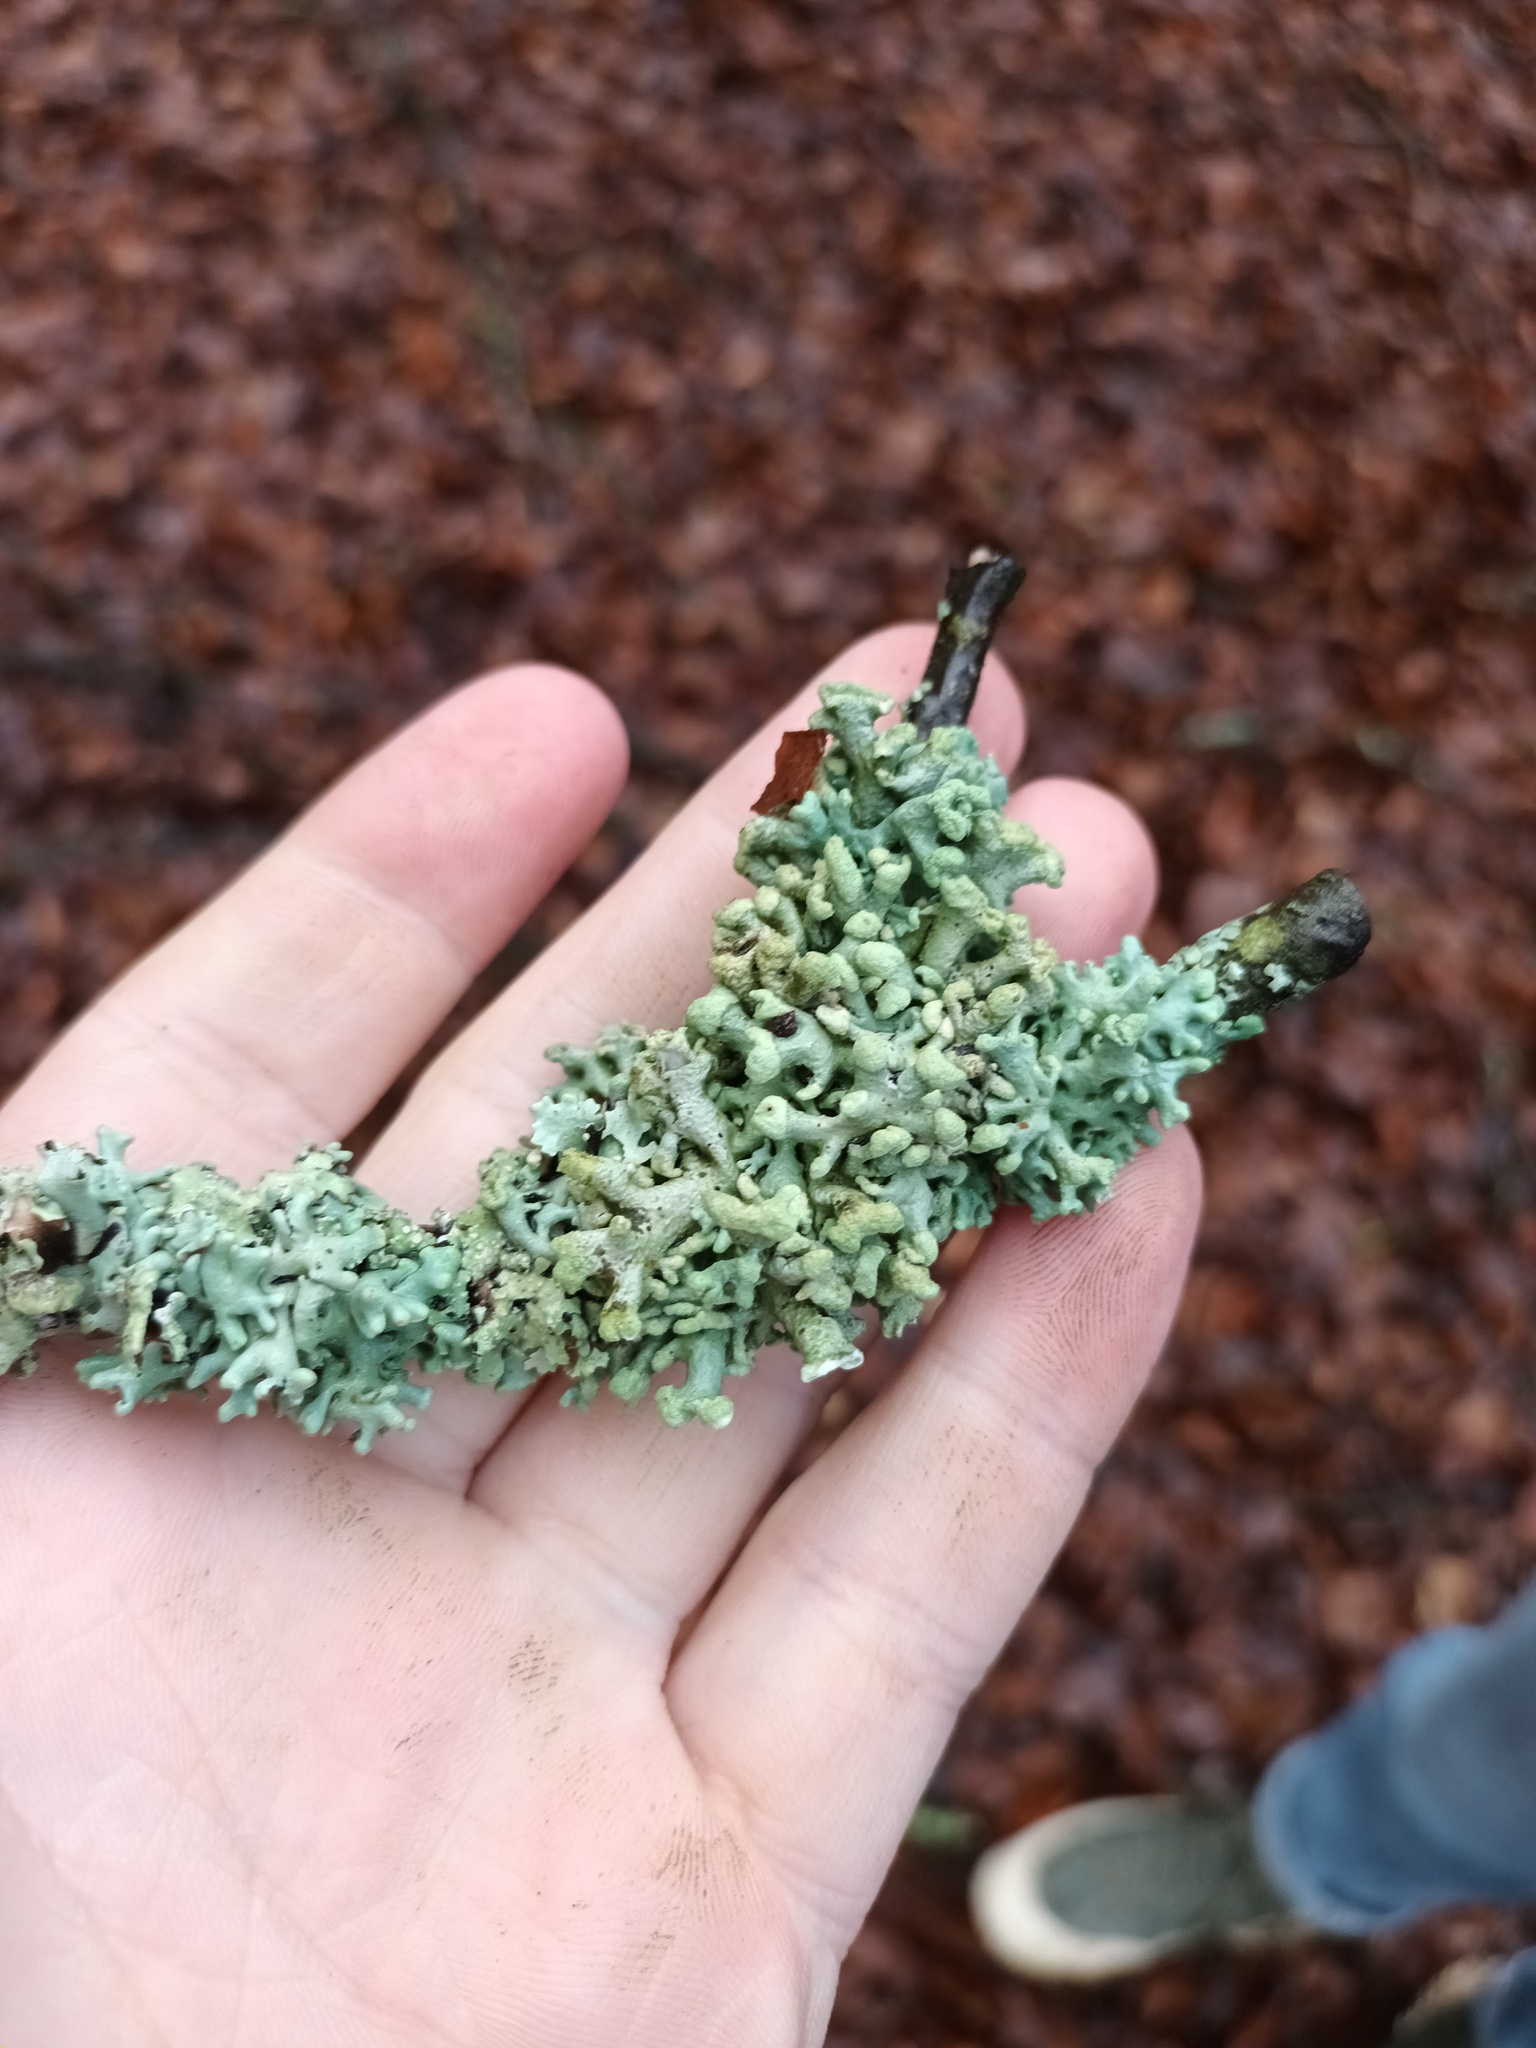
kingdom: Fungi
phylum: Ascomycota
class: Lecanoromycetes
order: Lecanorales
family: Parmeliaceae
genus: Hypogymnia
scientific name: Hypogymnia tubulosa
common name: Powder-headed tube lichen
